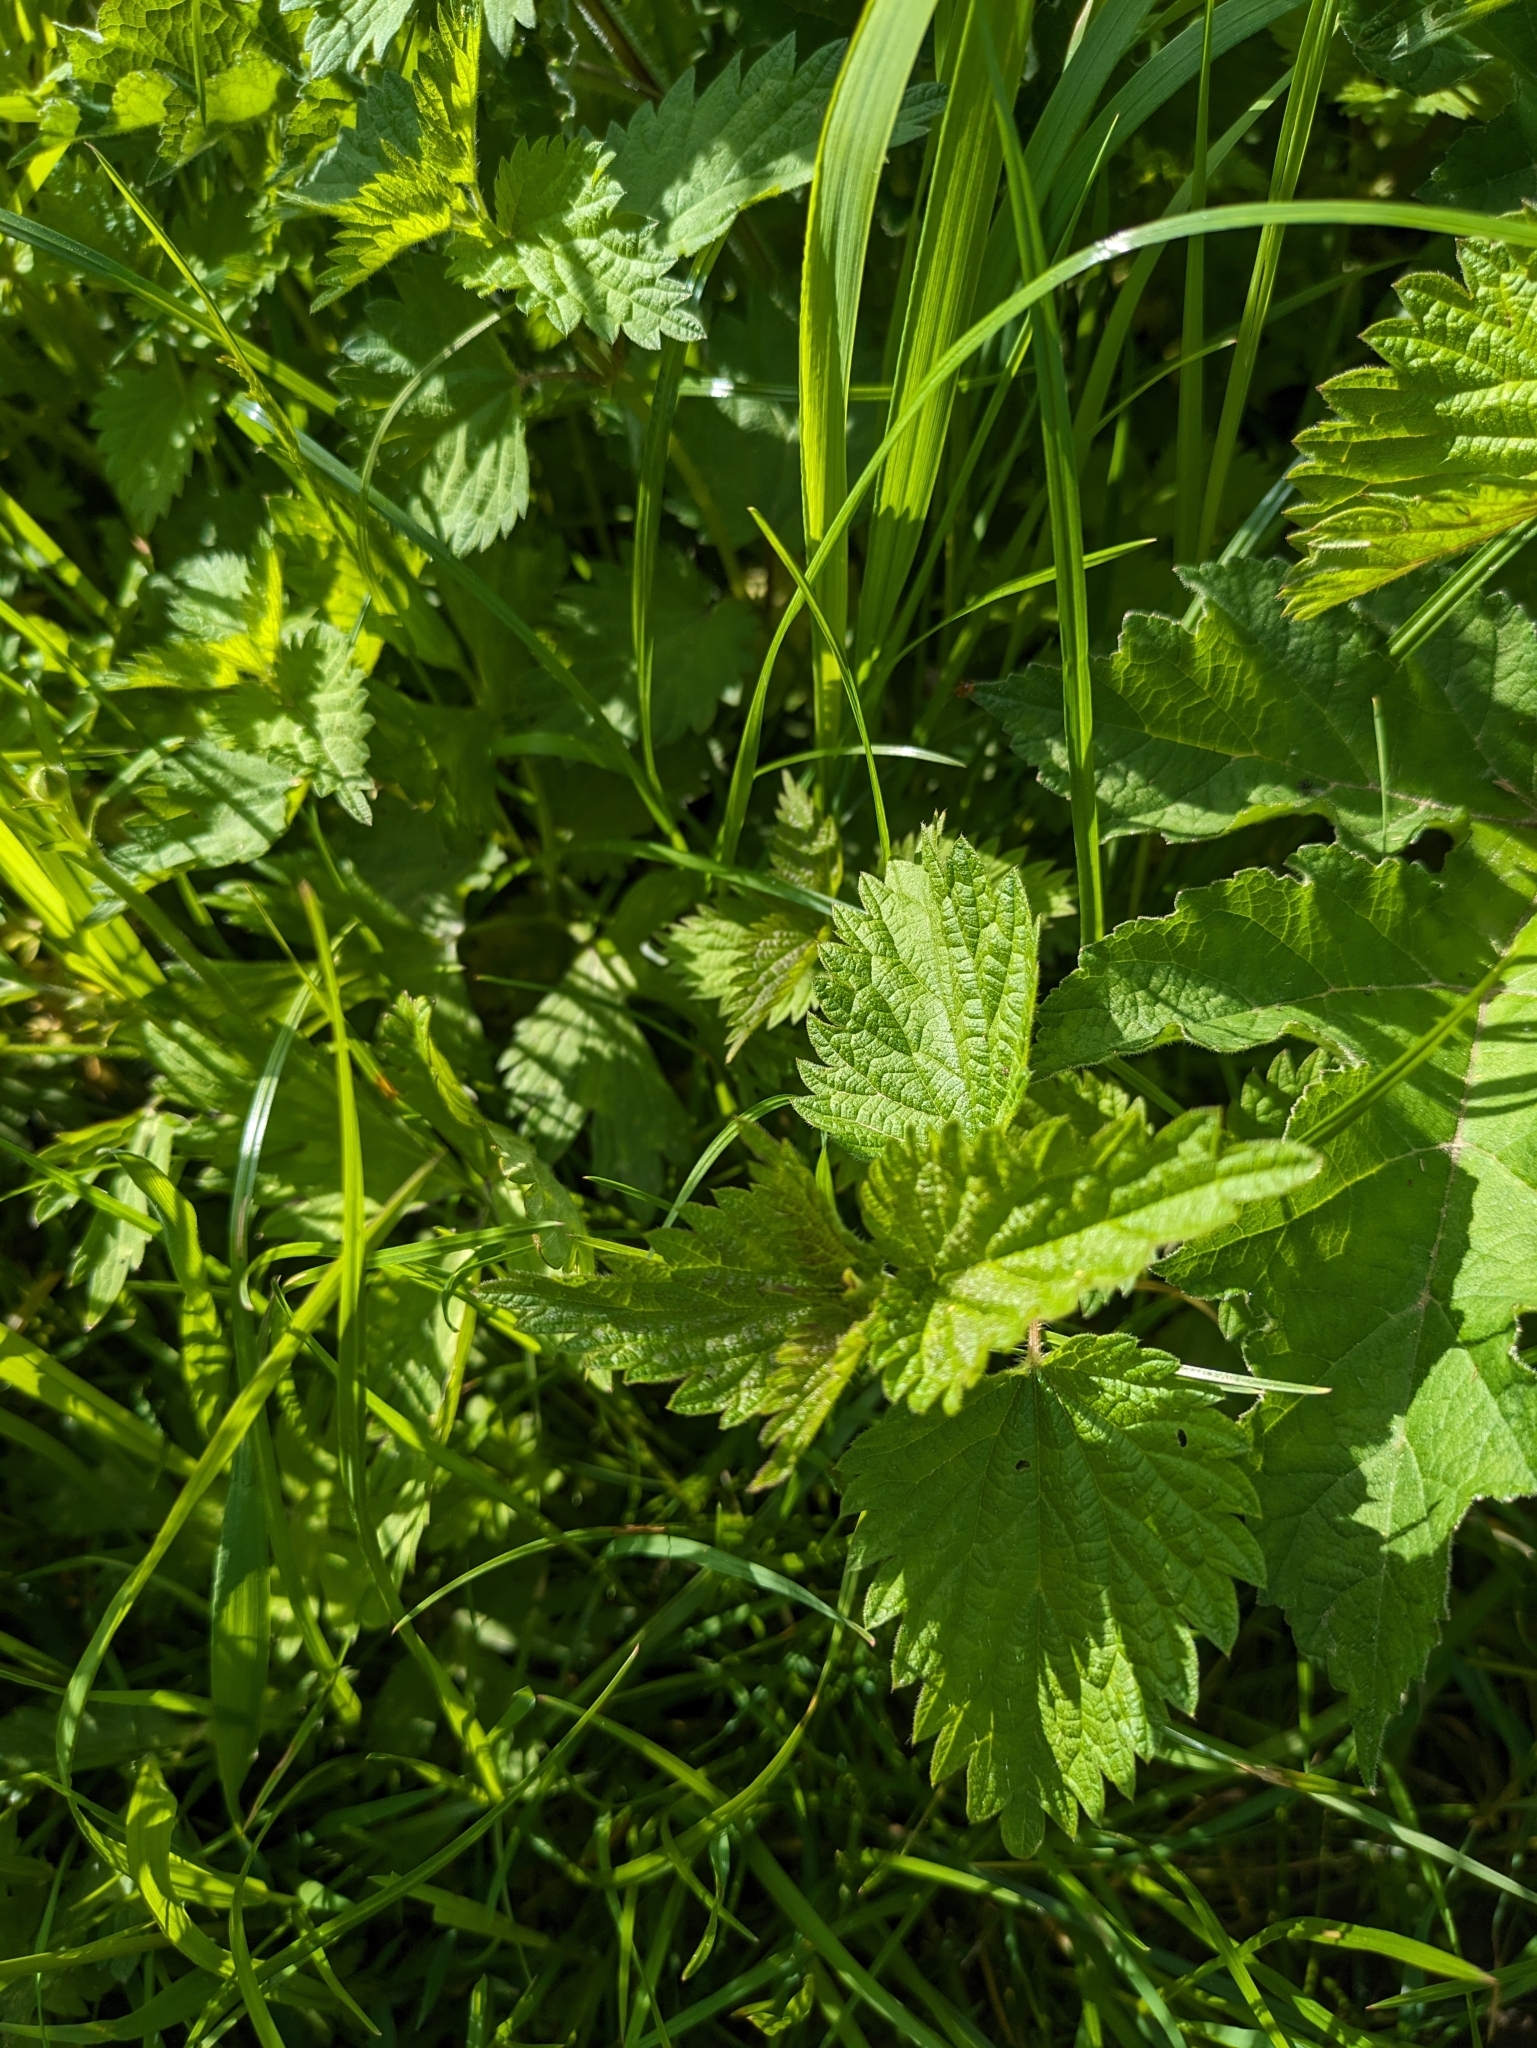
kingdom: Plantae
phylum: Tracheophyta
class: Magnoliopsida
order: Rosales
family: Urticaceae
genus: Urtica
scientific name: Urtica dioica
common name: Common nettle
